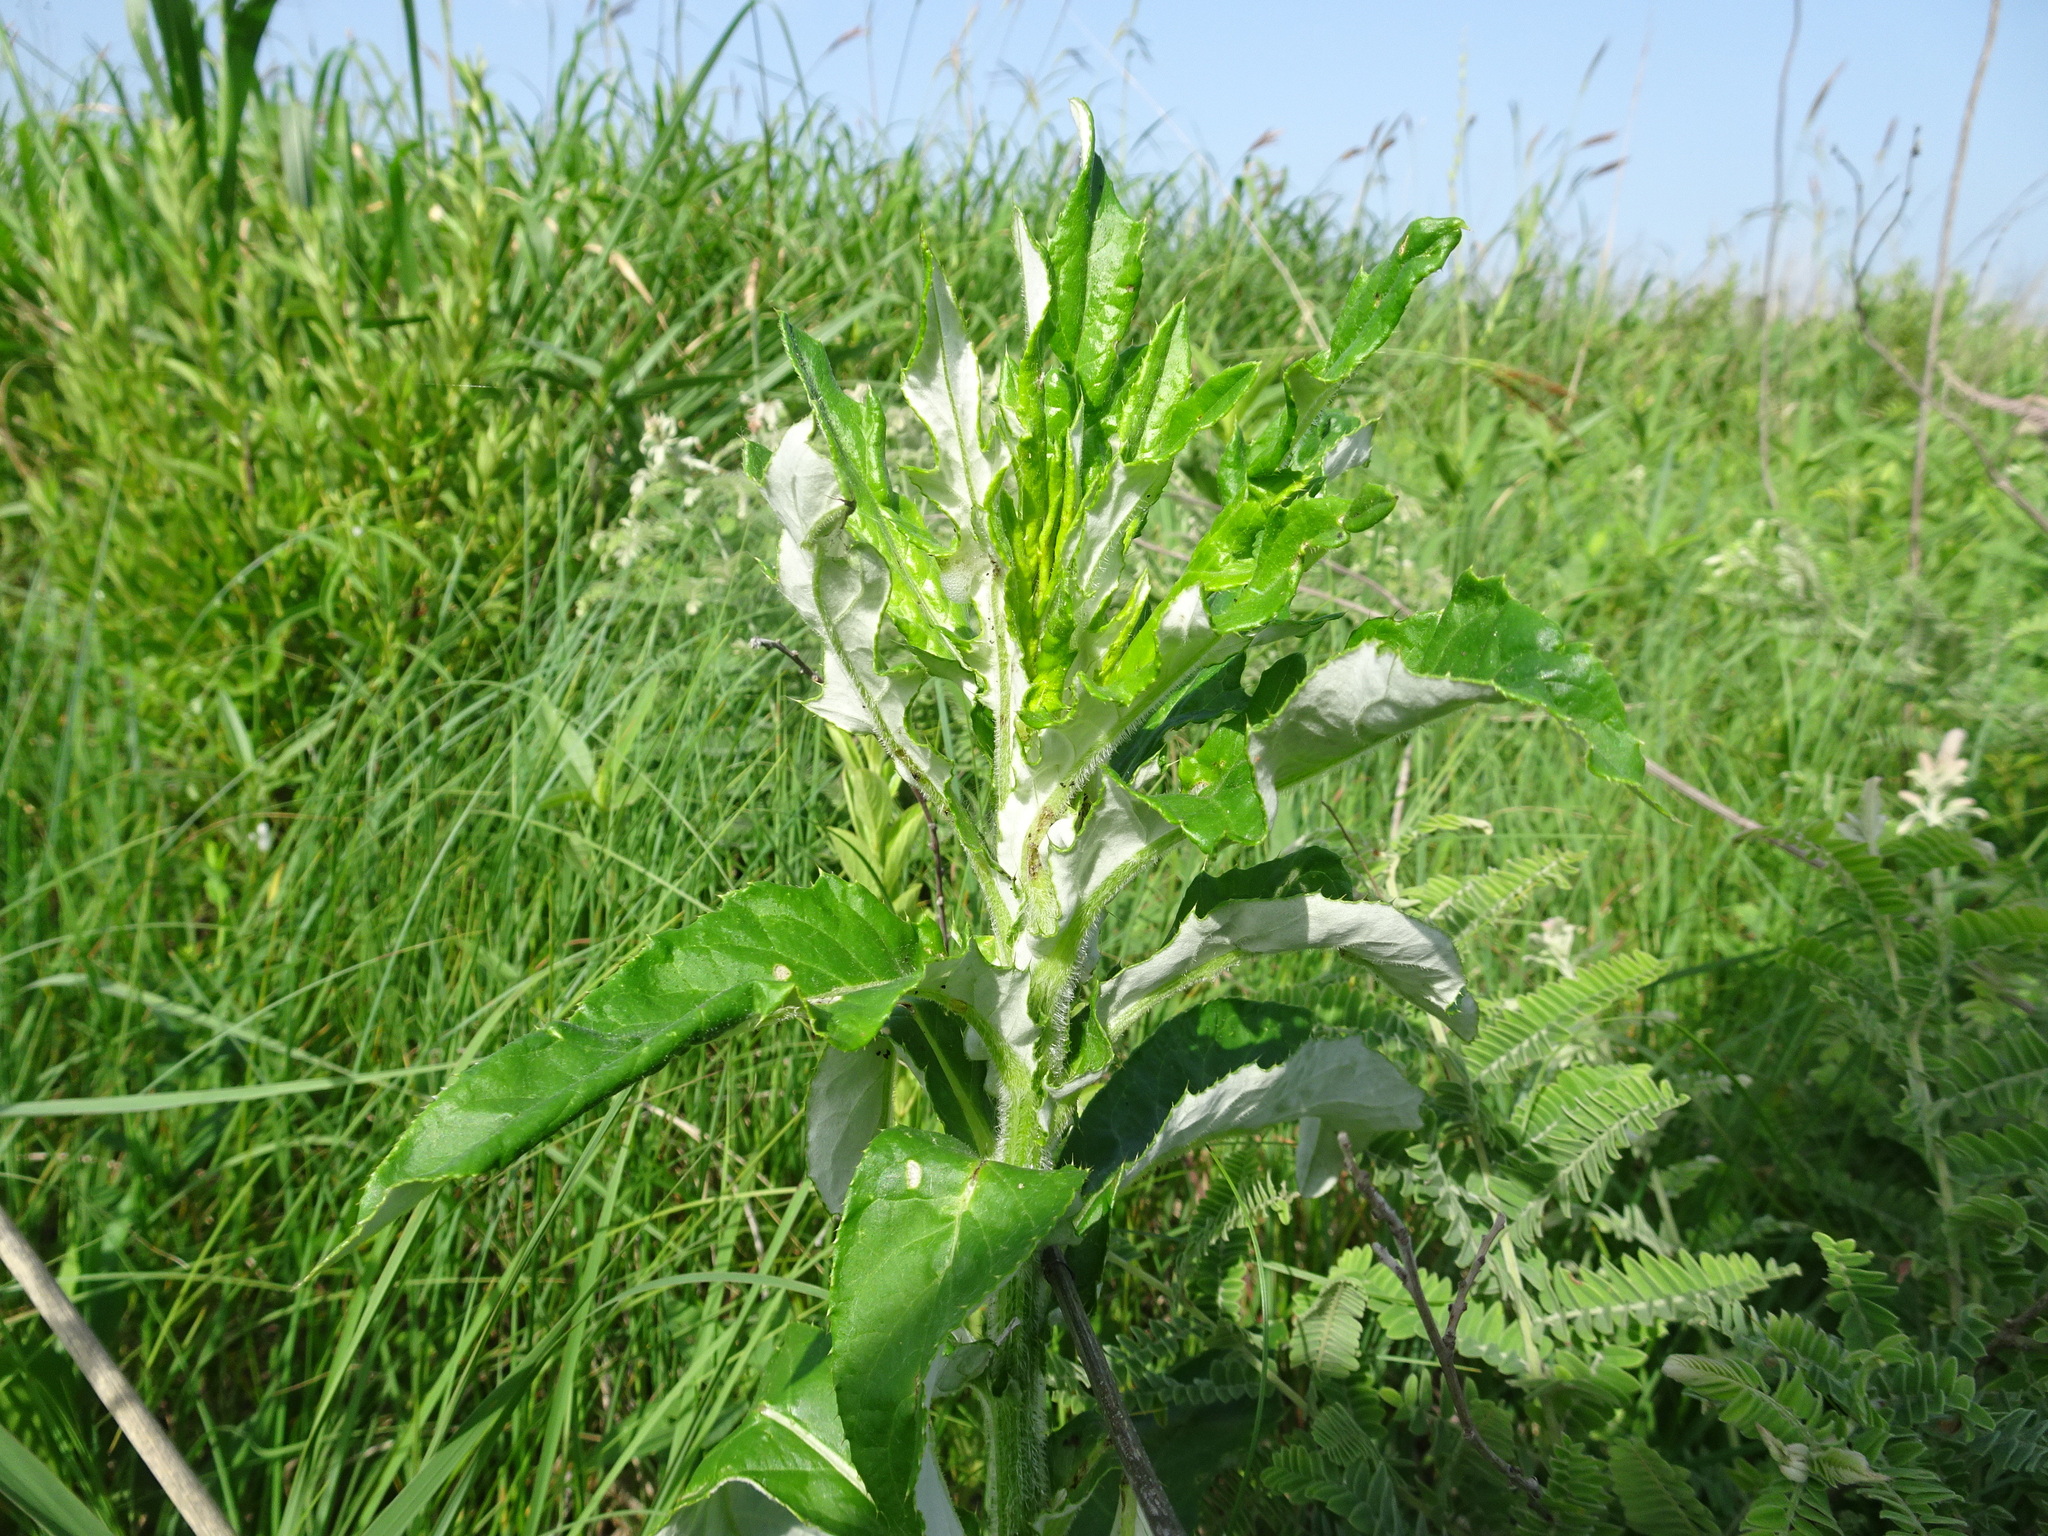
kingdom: Plantae
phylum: Tracheophyta
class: Magnoliopsida
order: Asterales
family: Asteraceae
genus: Cirsium
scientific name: Cirsium altissimum
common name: Roadside thistle
